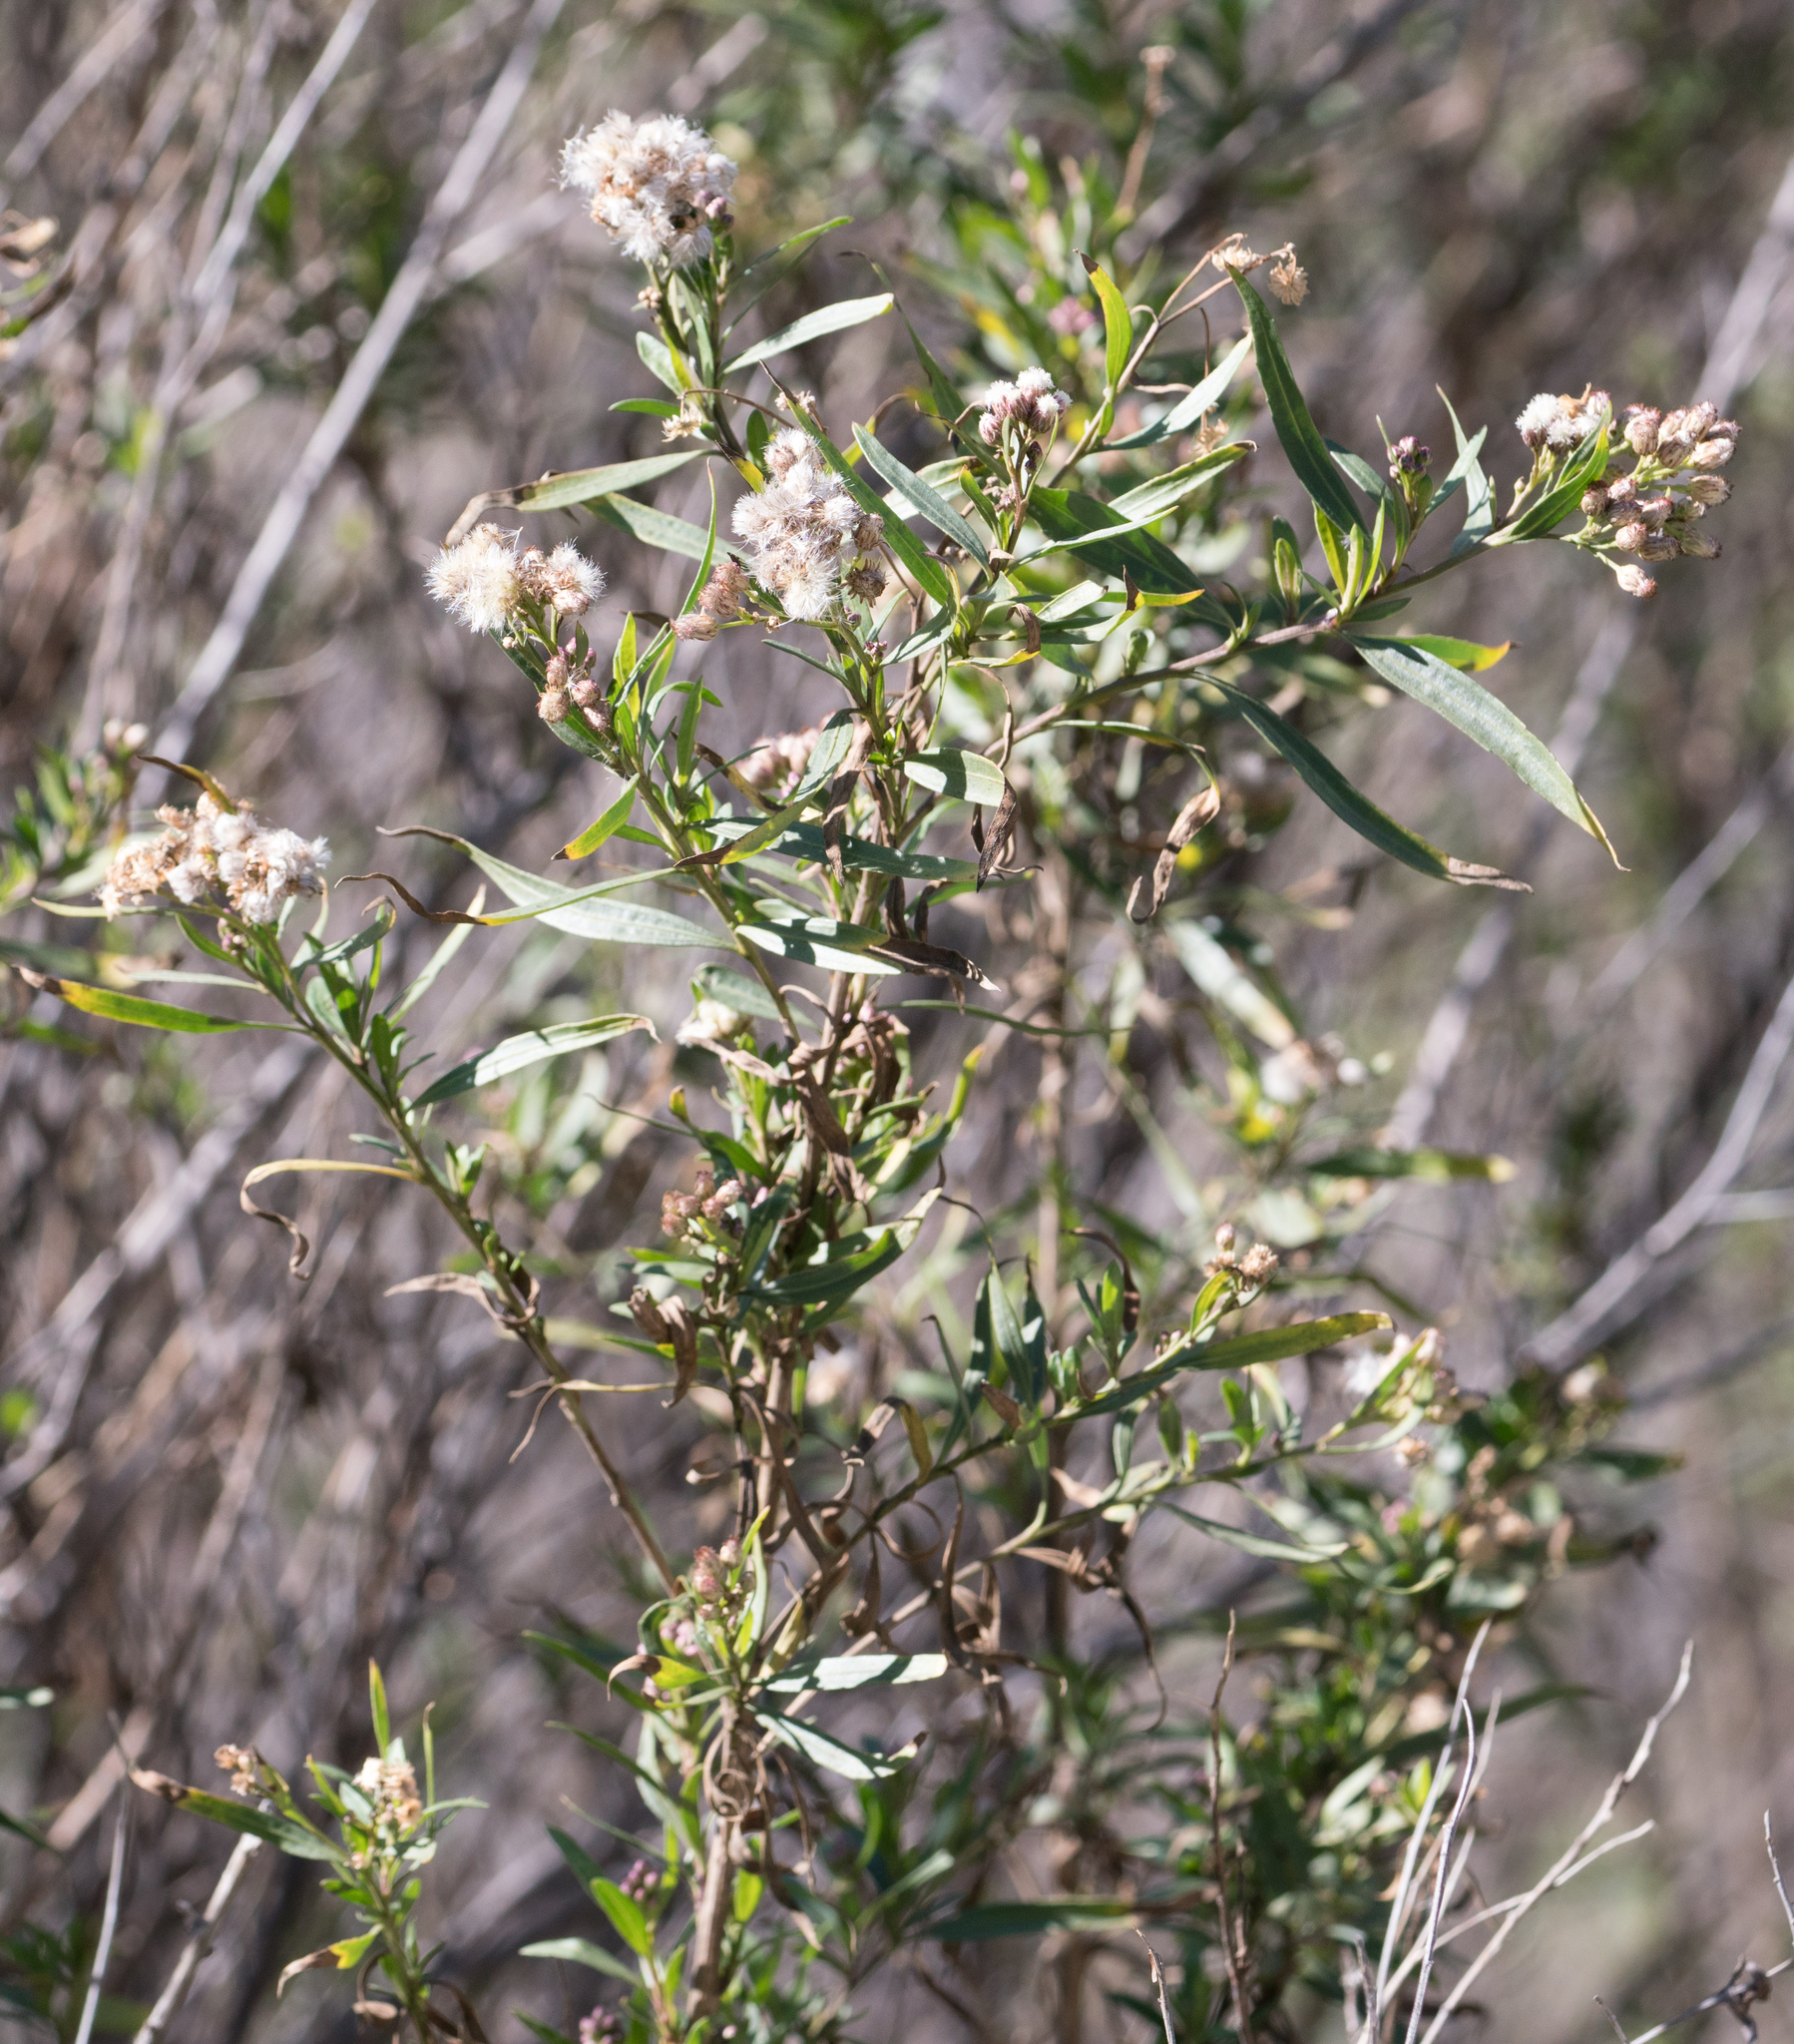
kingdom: Plantae
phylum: Tracheophyta
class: Magnoliopsida
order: Asterales
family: Asteraceae
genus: Baccharis
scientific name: Baccharis salicifolia
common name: Sticky baccharis
